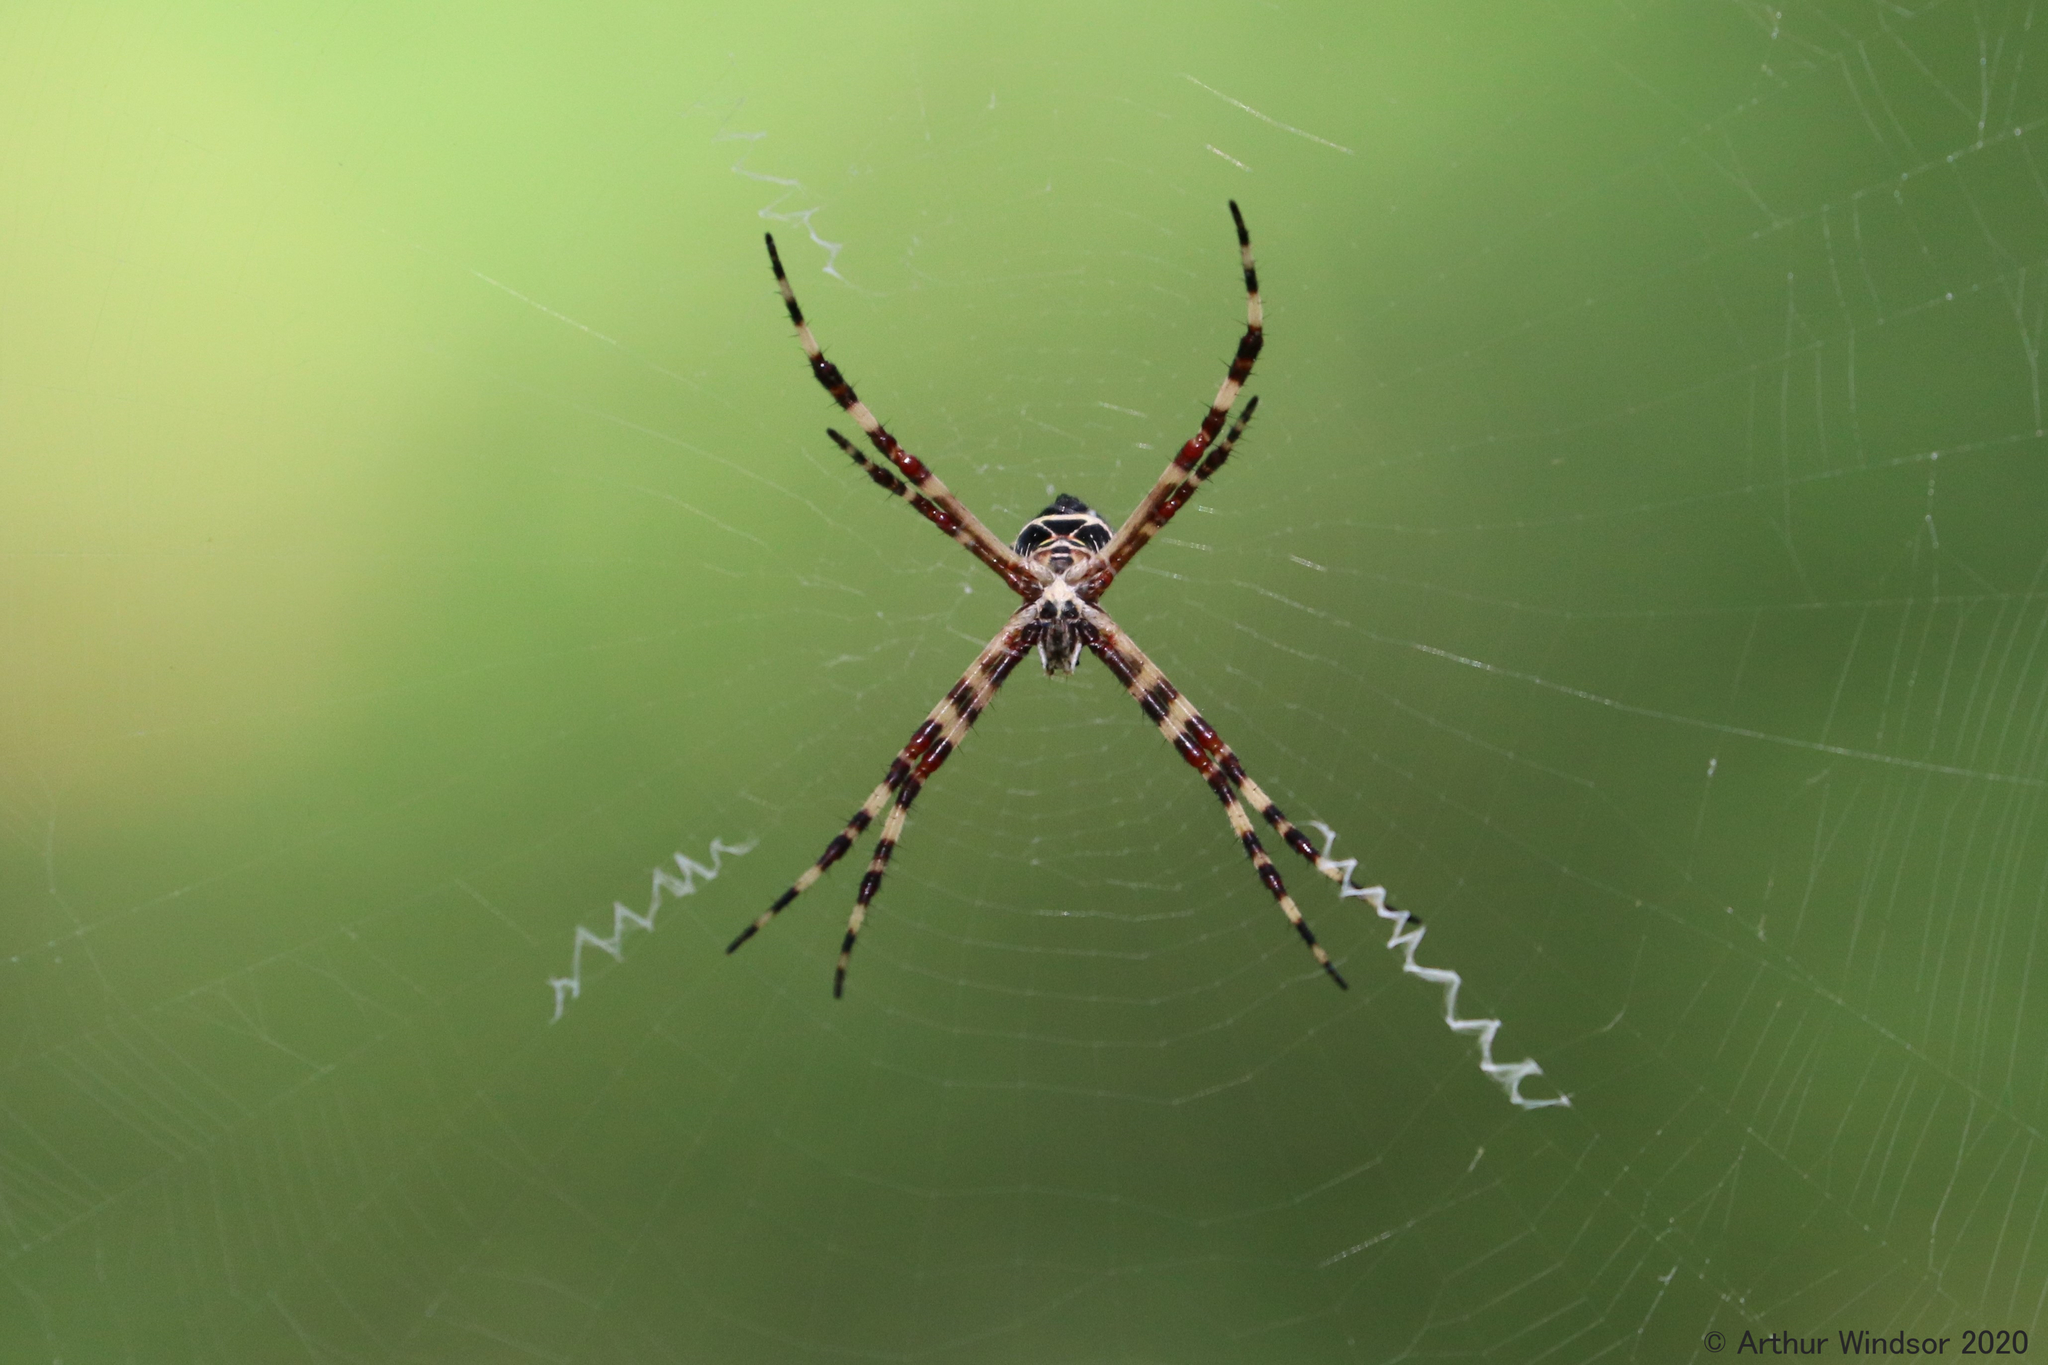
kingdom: Animalia
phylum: Arthropoda
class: Arachnida
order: Araneae
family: Araneidae
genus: Argiope
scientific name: Argiope argentata
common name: Orb weavers
